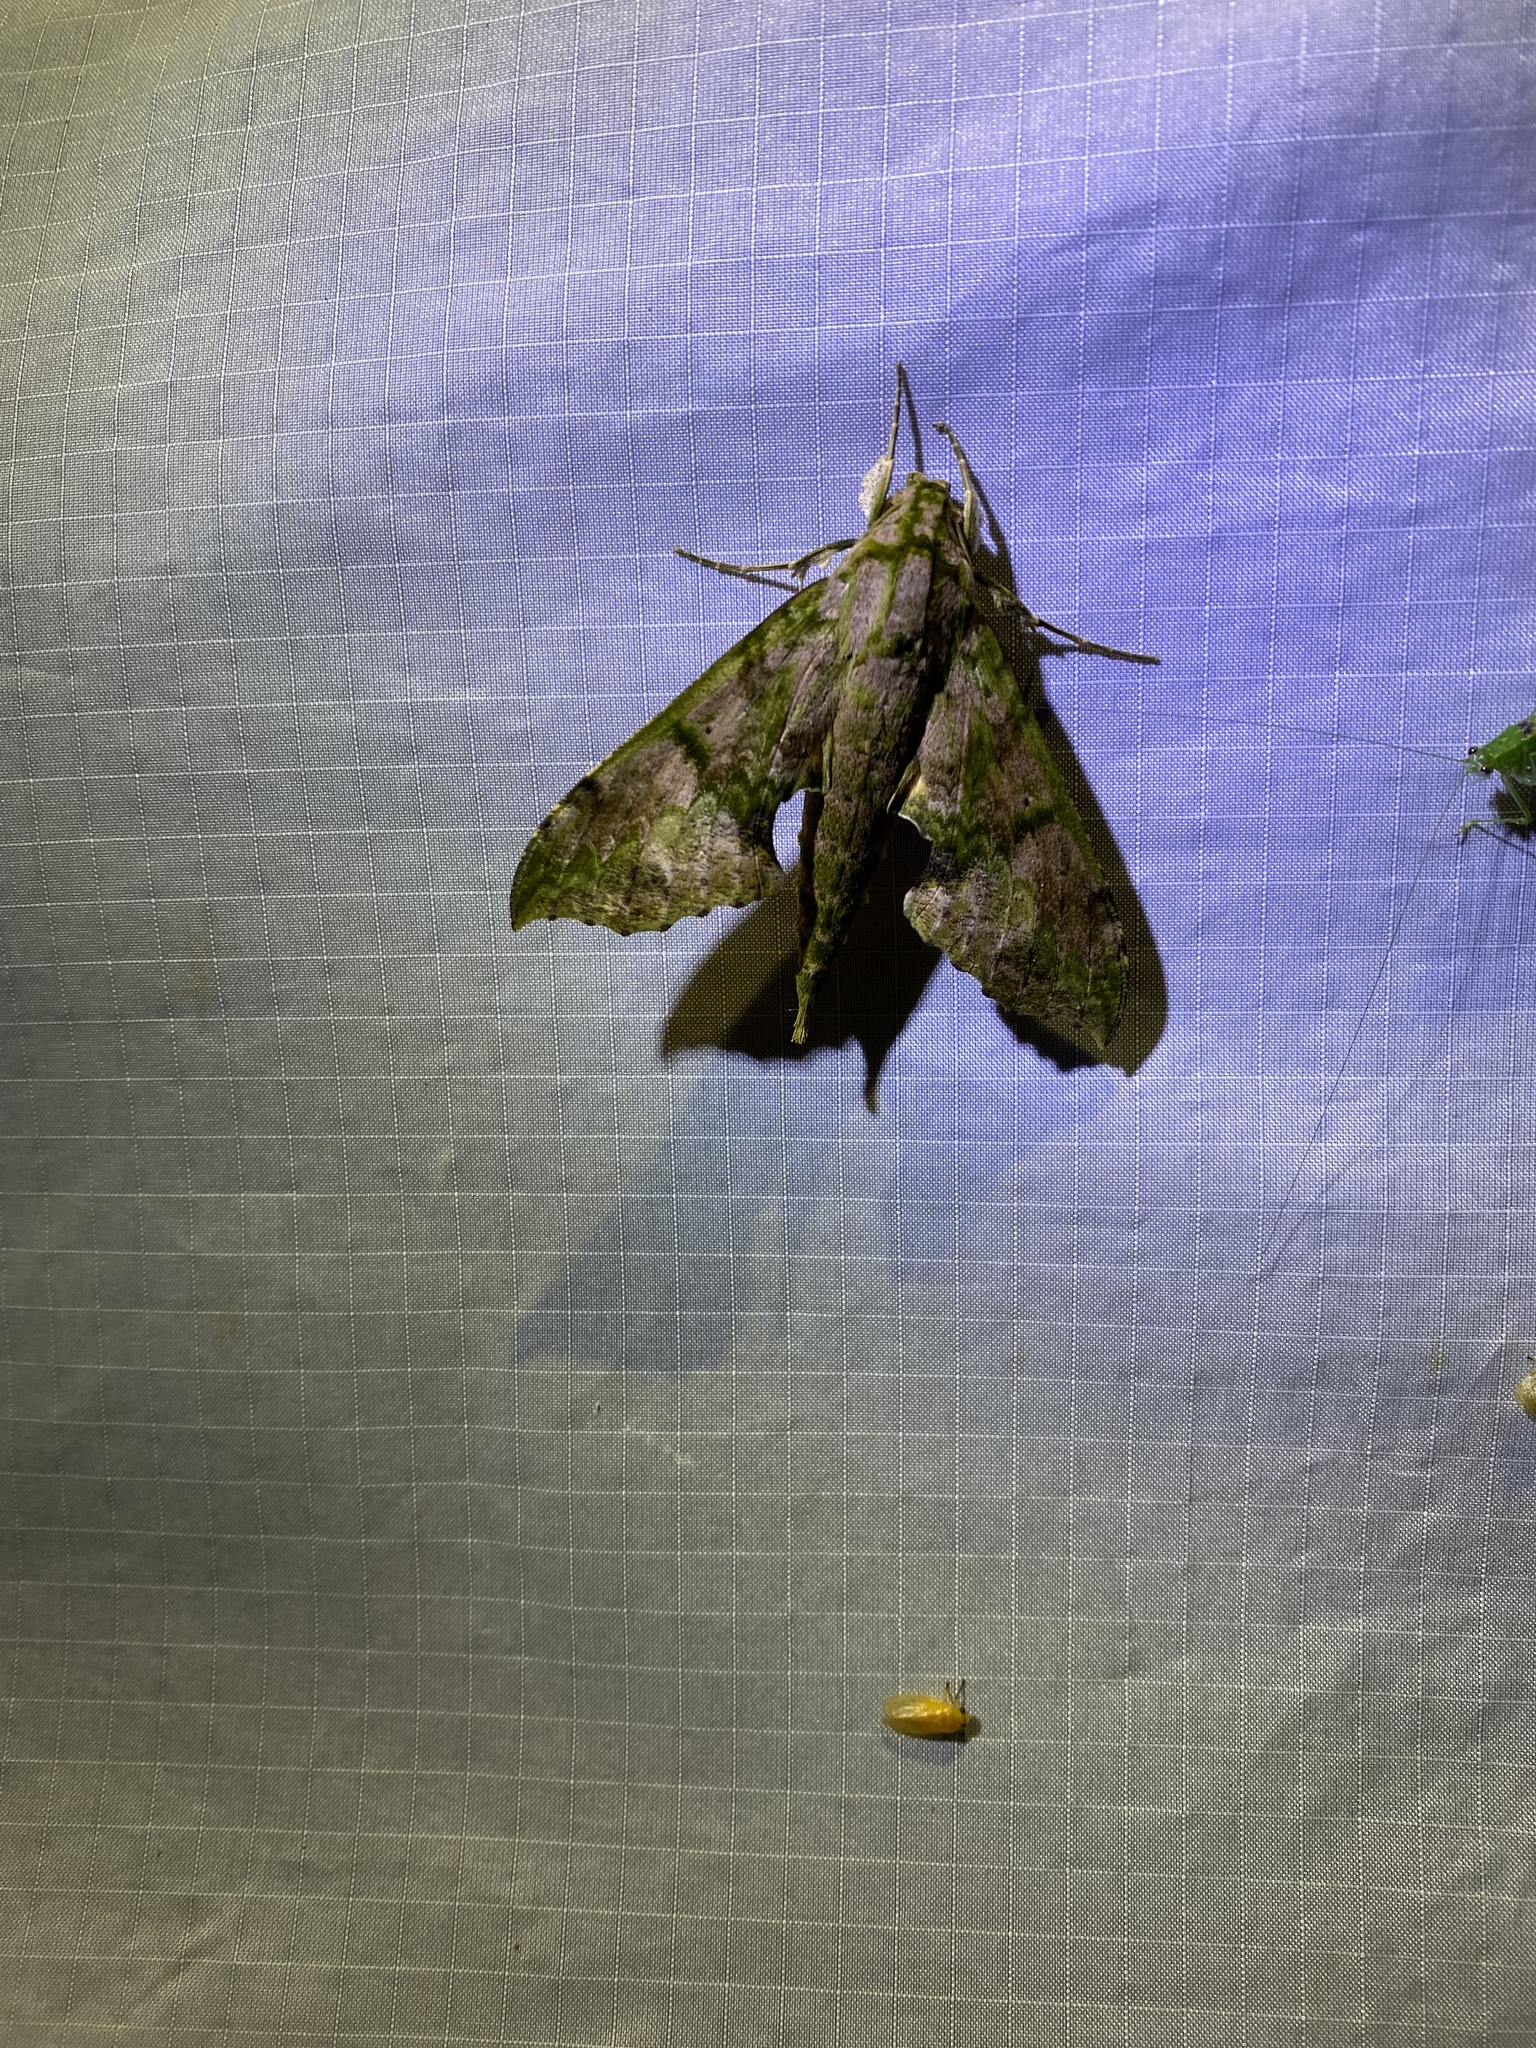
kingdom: Animalia
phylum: Arthropoda
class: Insecta
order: Lepidoptera
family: Sphingidae
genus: Xylophanes
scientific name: Xylophanes zurcheri
